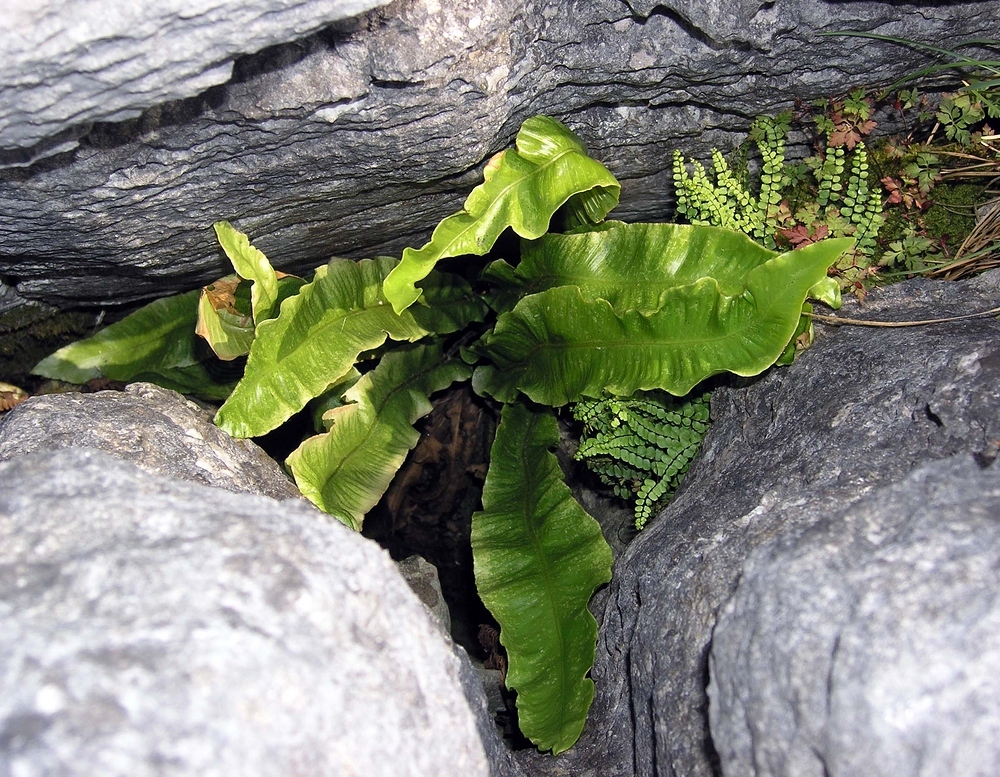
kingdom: Plantae
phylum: Tracheophyta
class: Polypodiopsida
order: Polypodiales
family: Aspleniaceae
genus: Asplenium
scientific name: Asplenium scolopendrium
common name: Hart's-tongue fern
